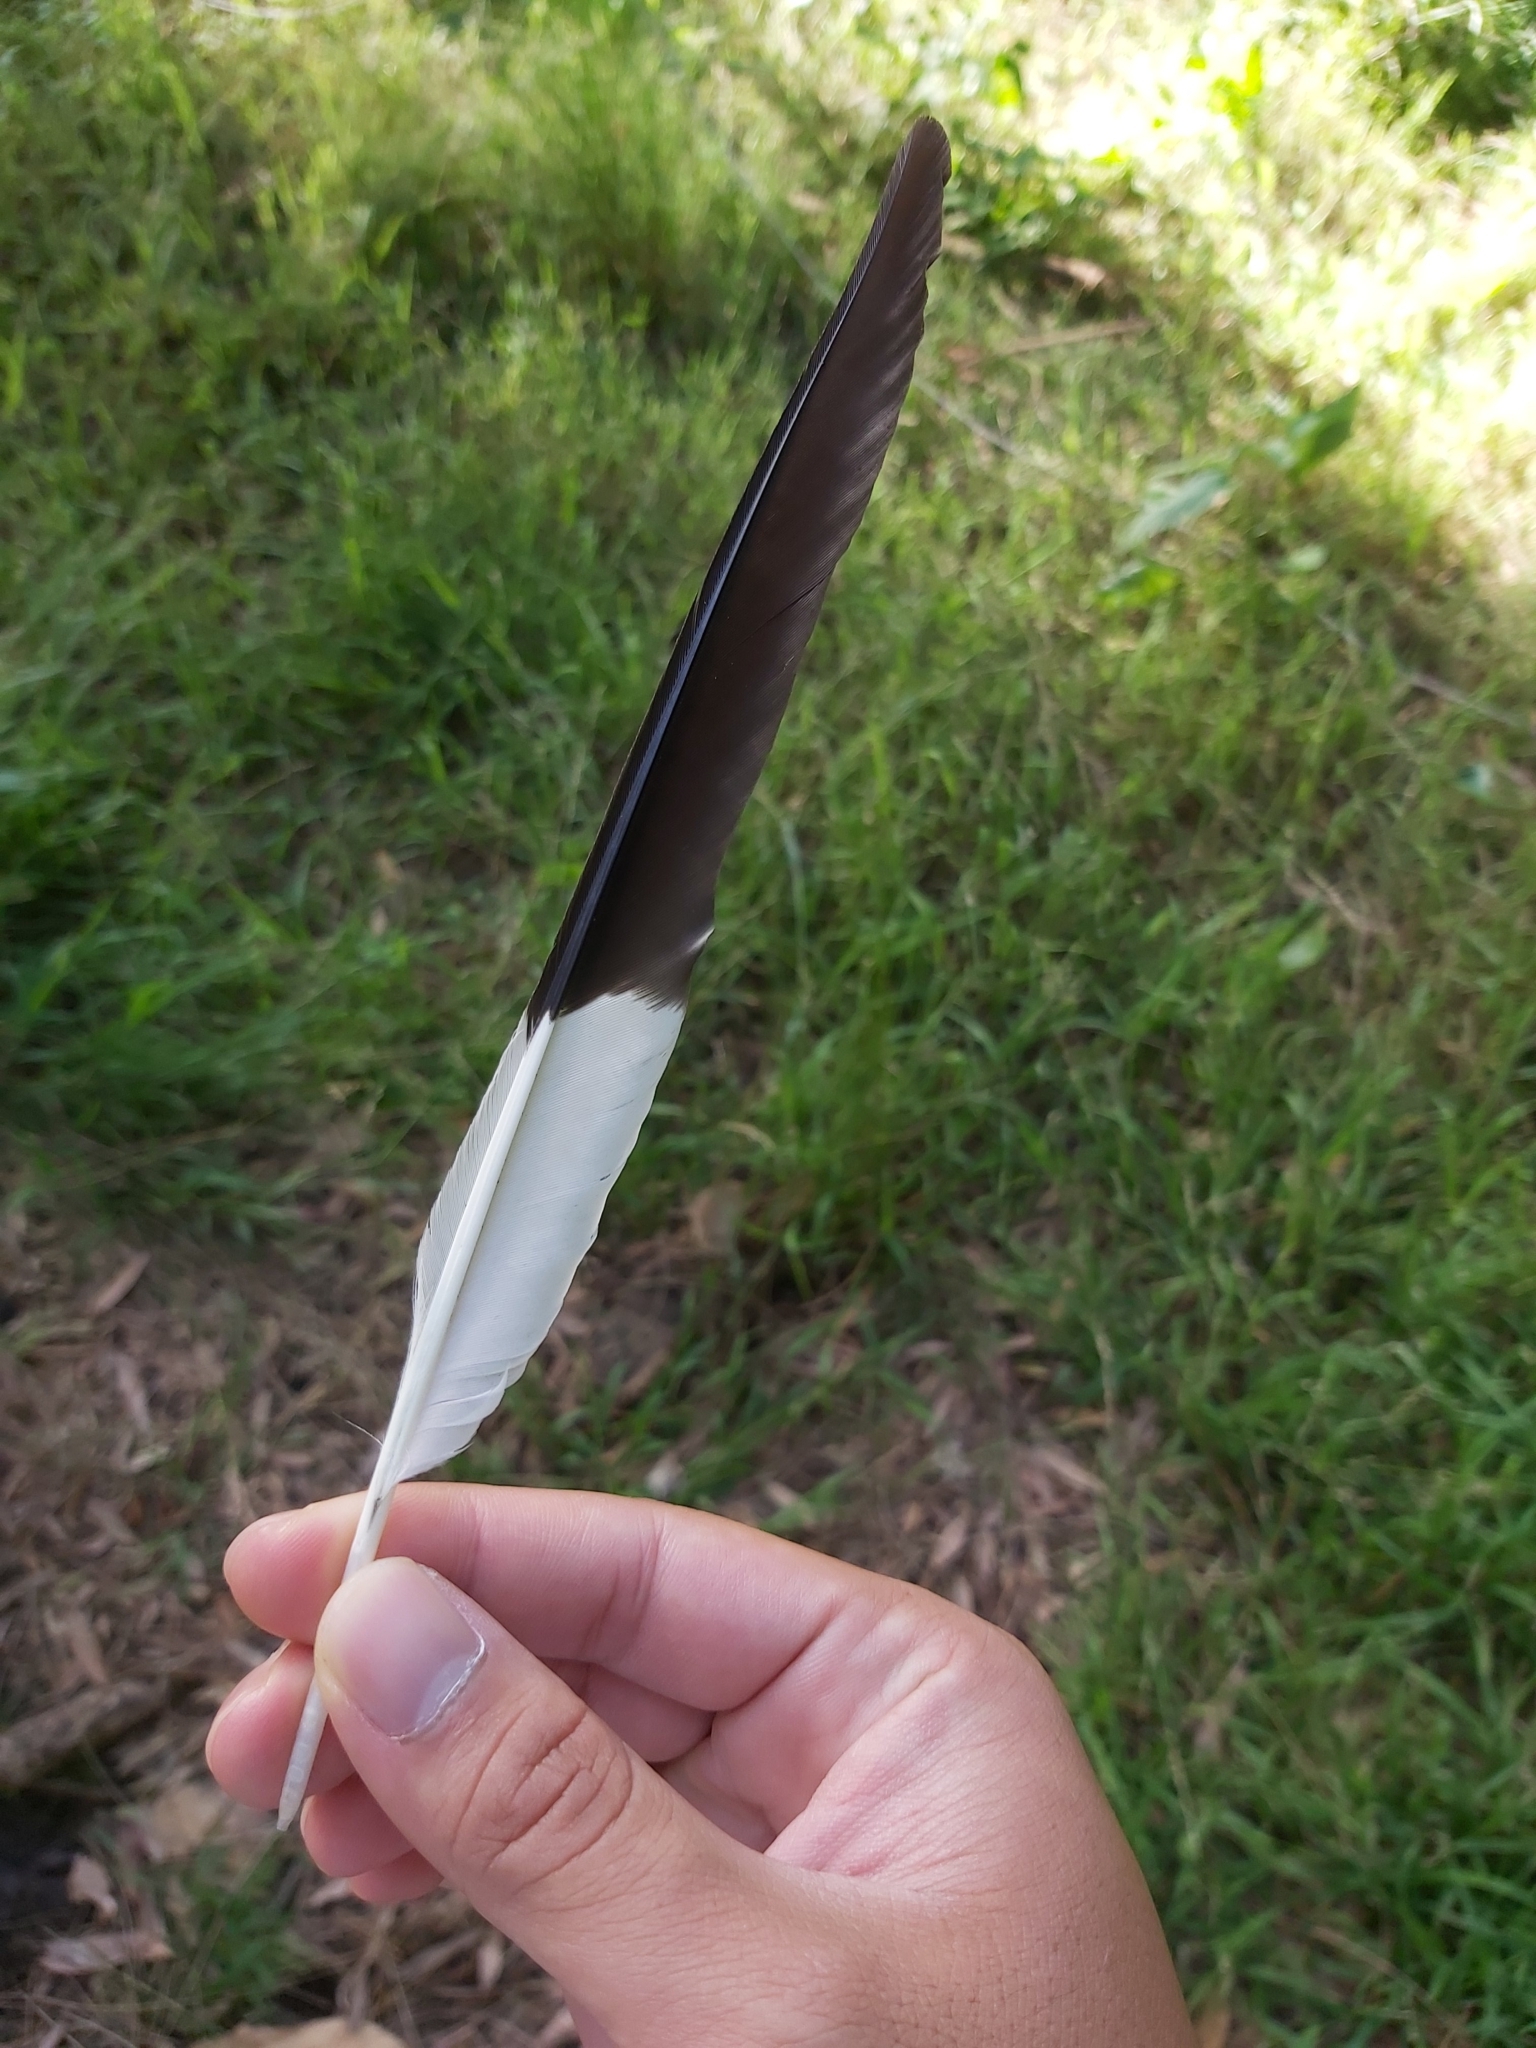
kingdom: Animalia
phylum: Chordata
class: Aves
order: Passeriformes
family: Cracticidae
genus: Strepera
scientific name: Strepera graculina
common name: Pied currawong
